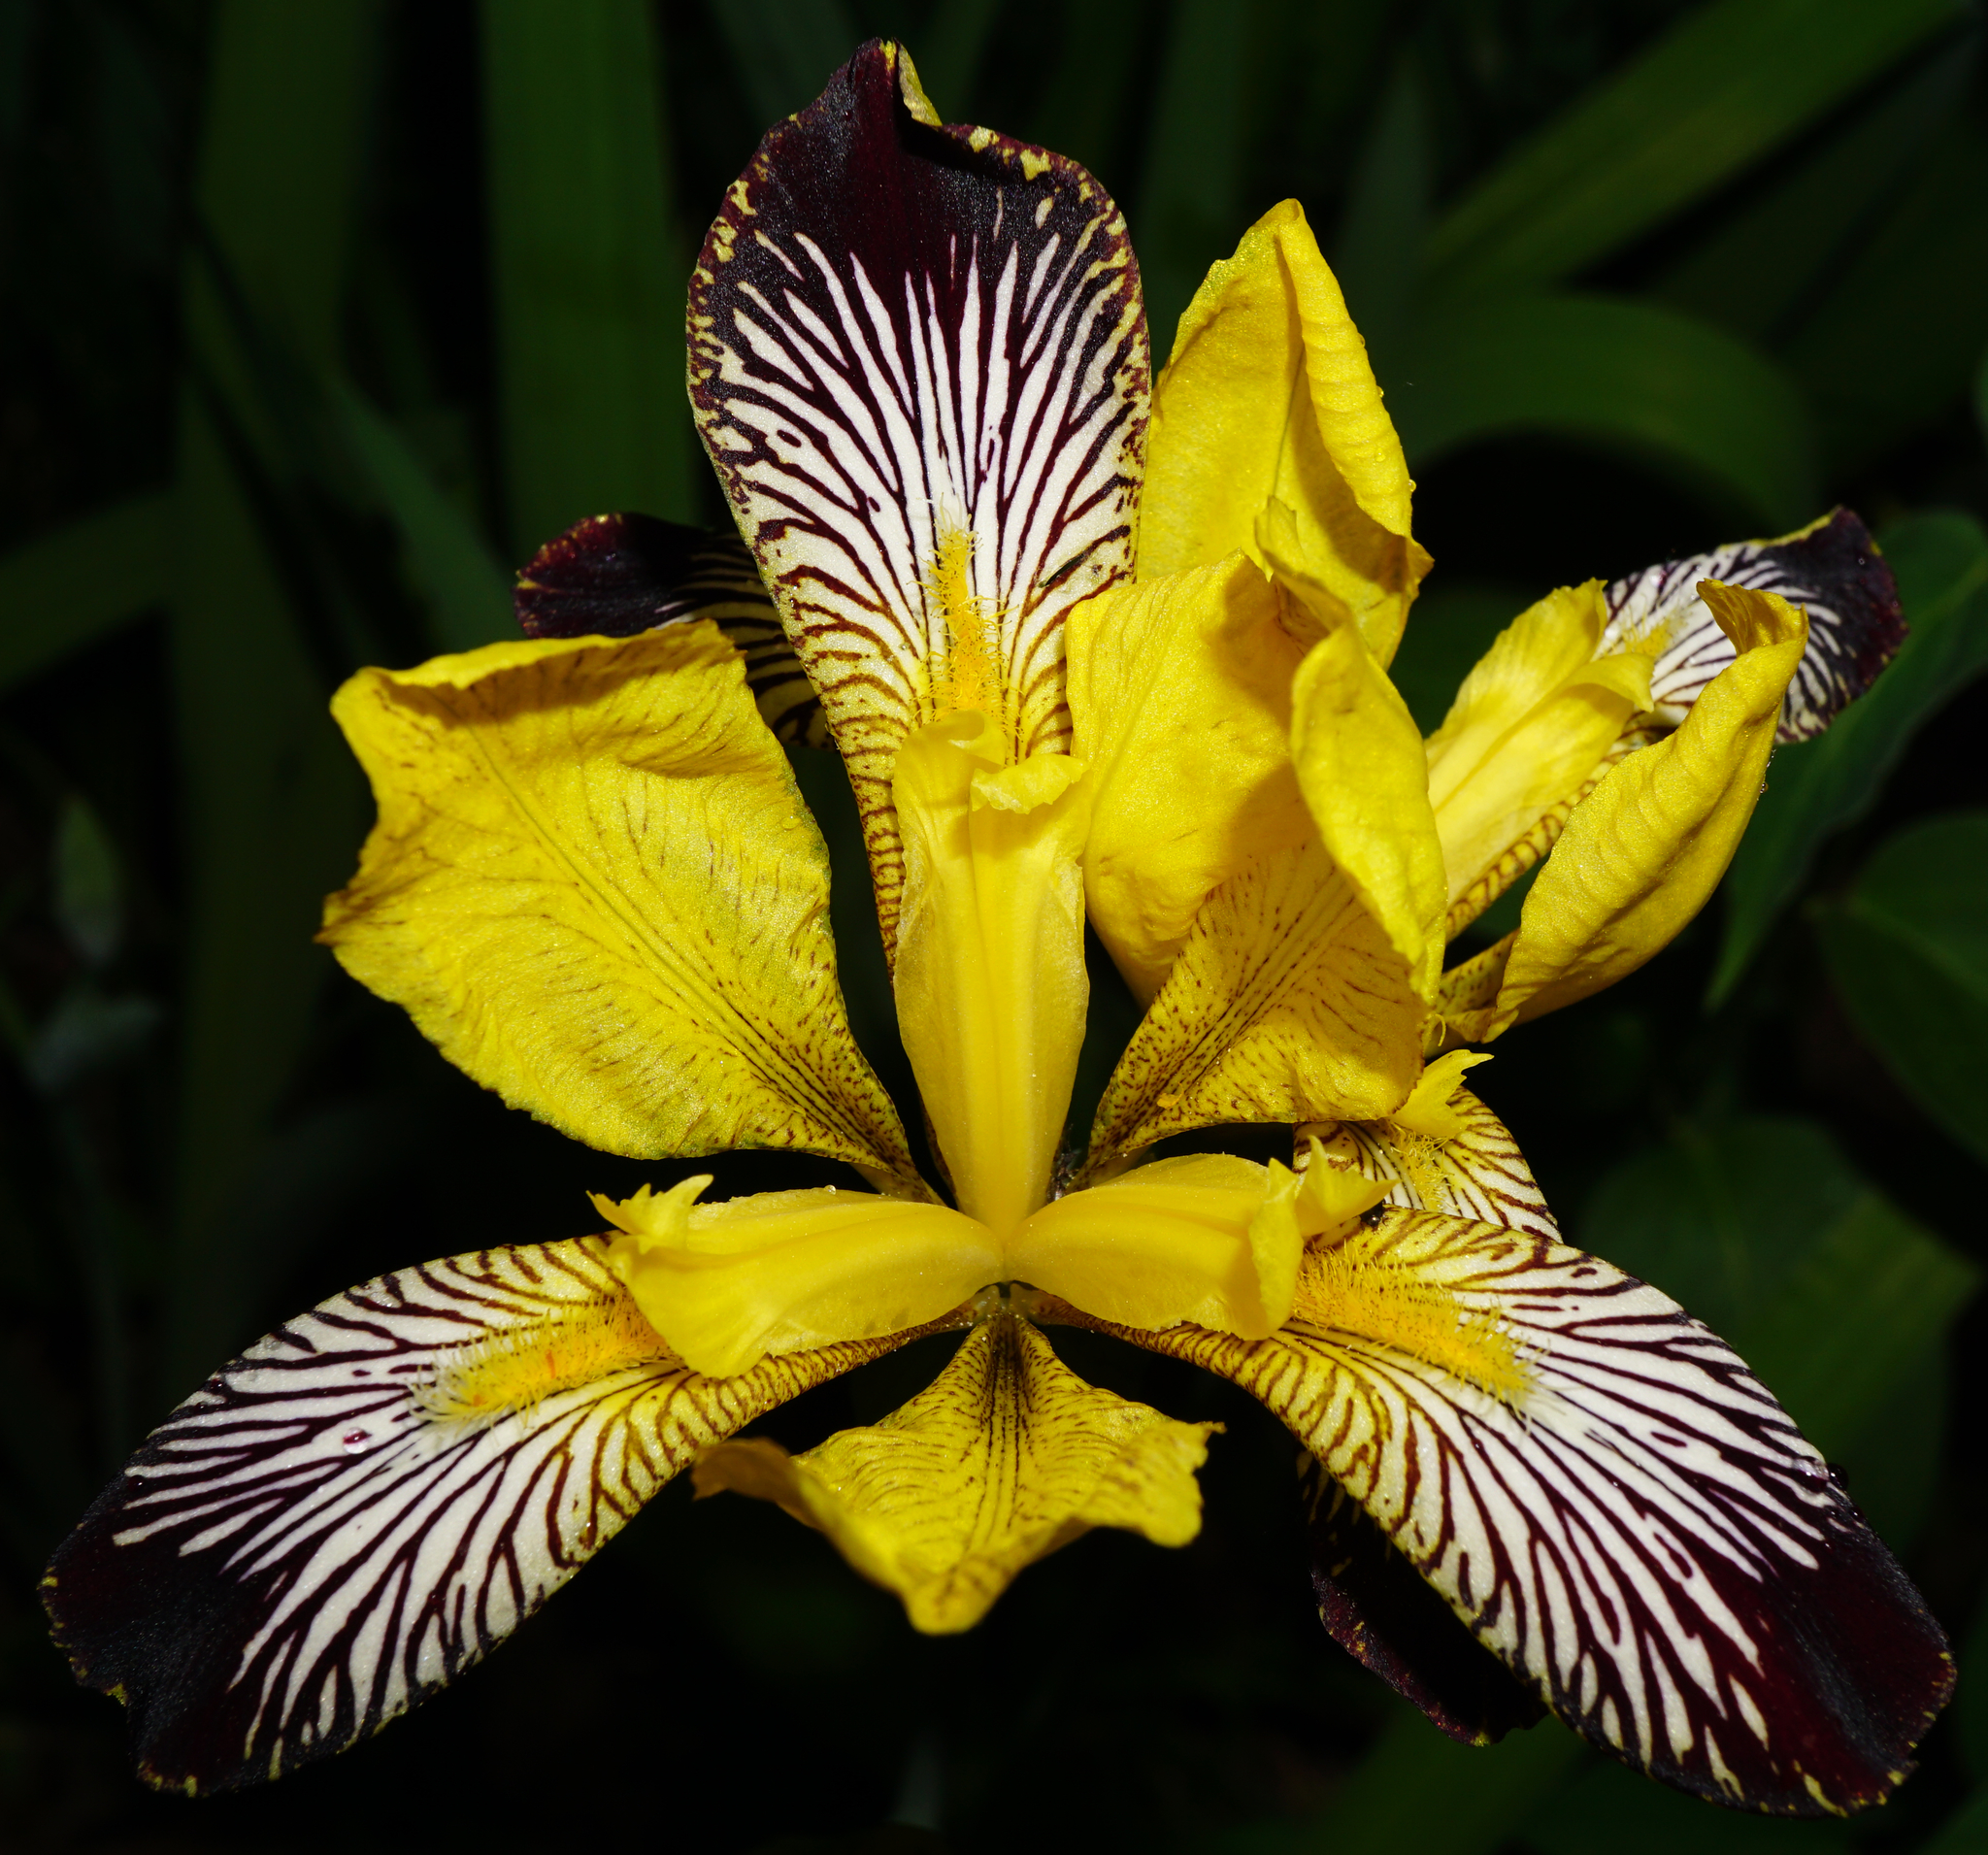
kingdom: Plantae
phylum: Tracheophyta
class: Liliopsida
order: Asparagales
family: Iridaceae
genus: Iris
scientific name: Iris variegata
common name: Hungarian iris
